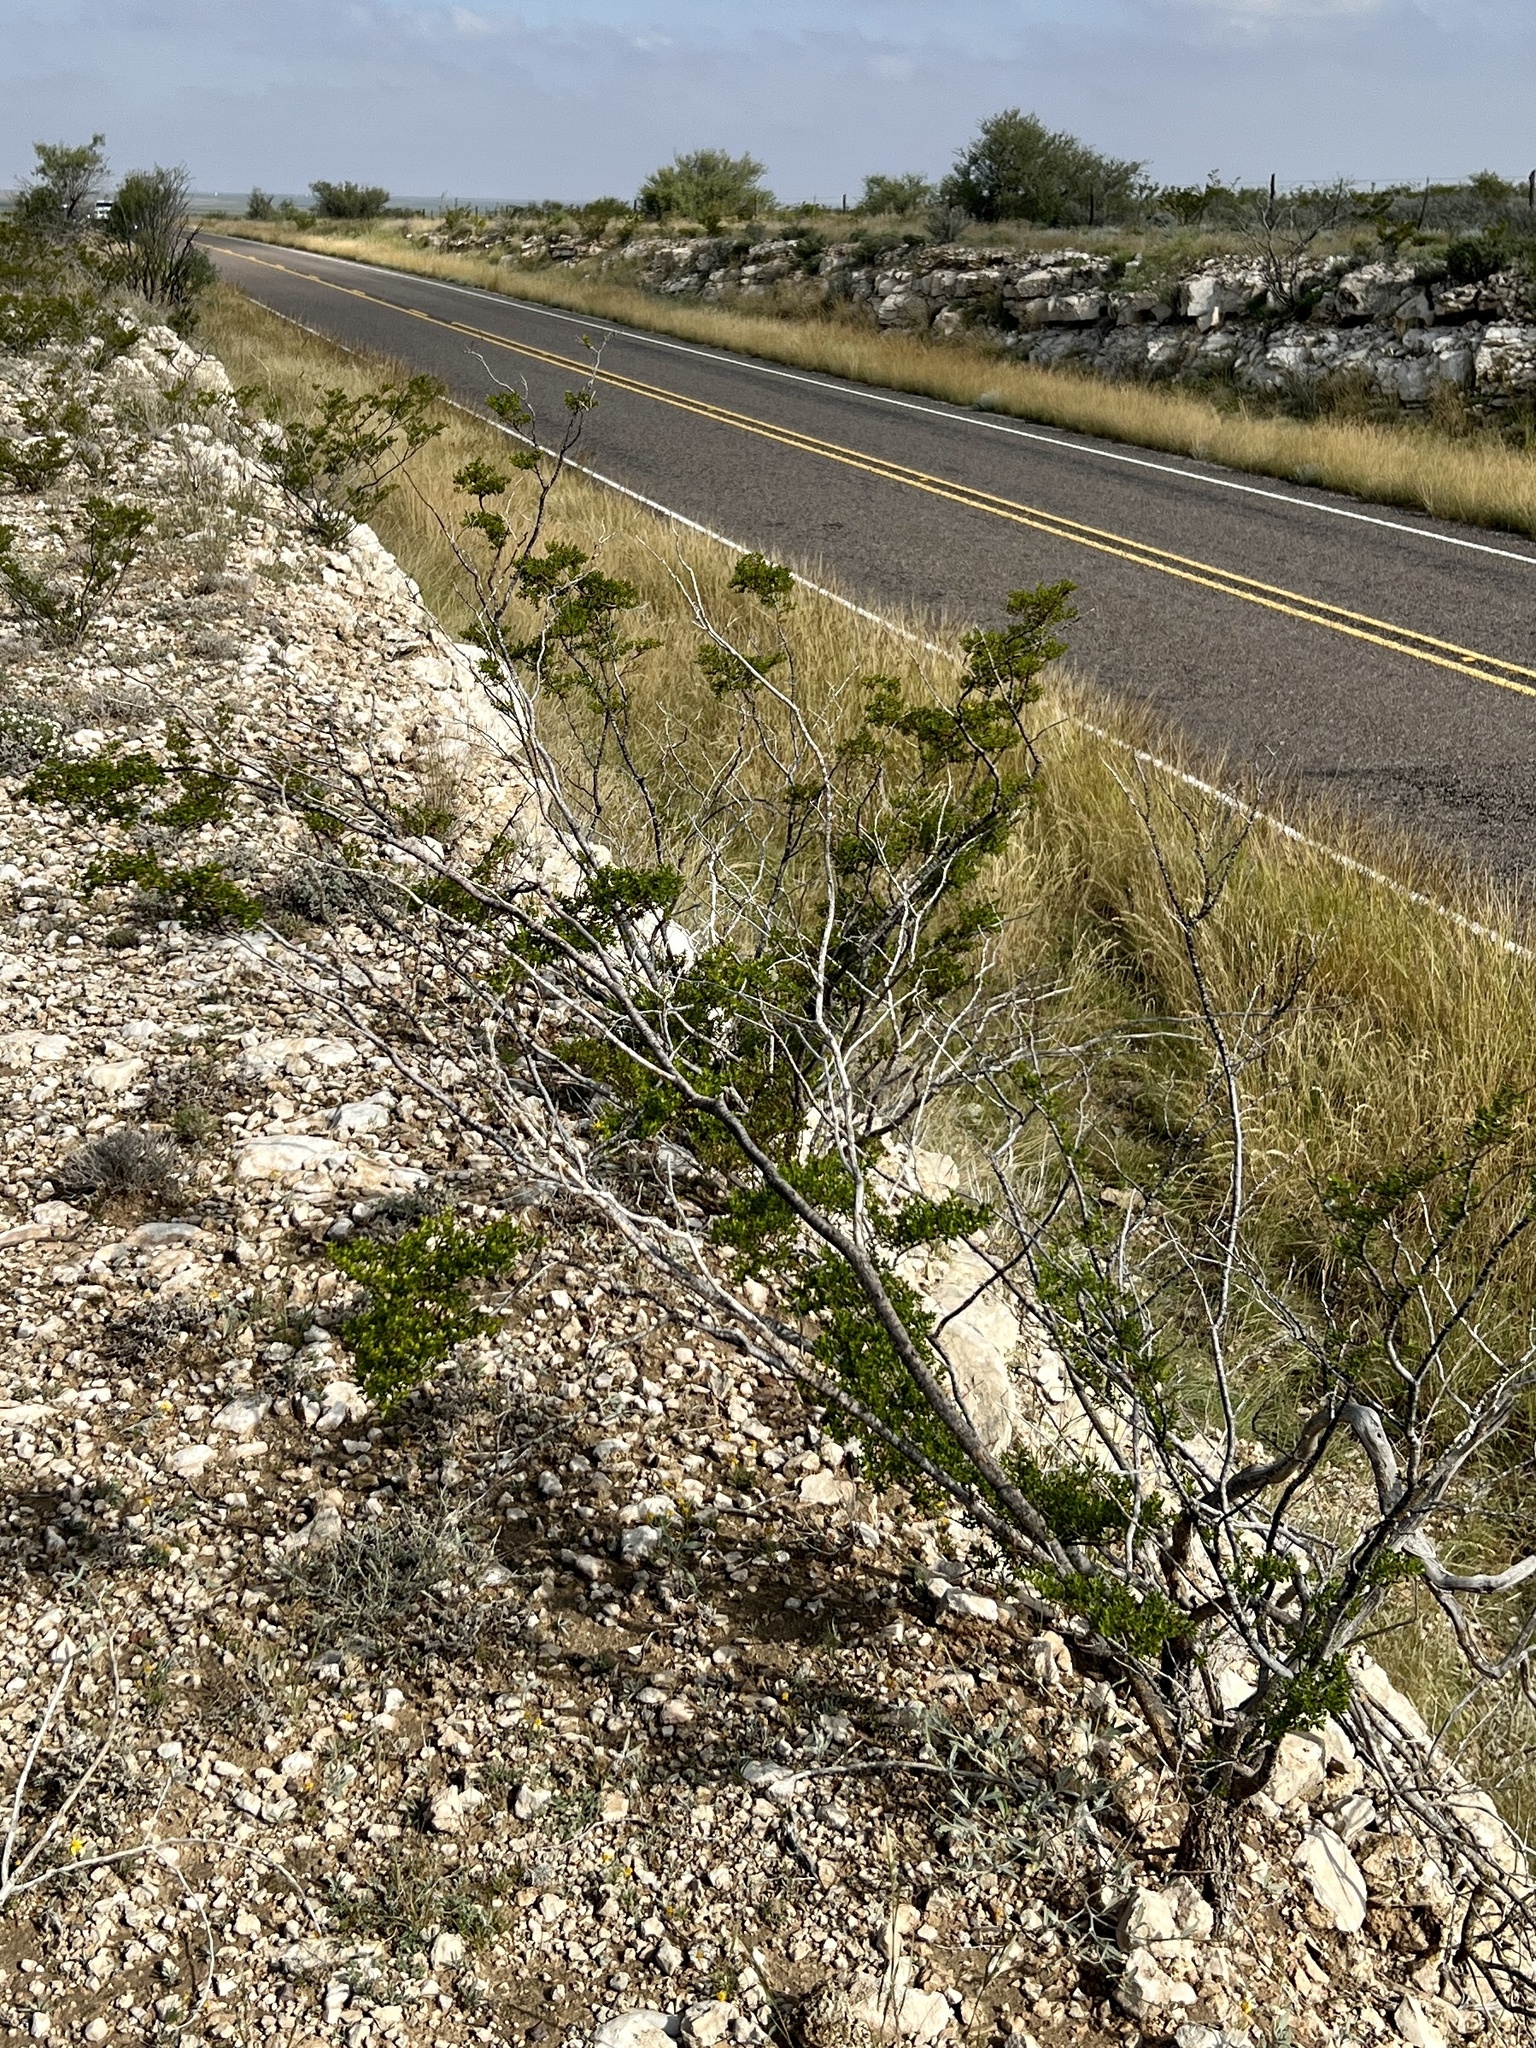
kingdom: Plantae
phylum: Tracheophyta
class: Magnoliopsida
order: Zygophyllales
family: Zygophyllaceae
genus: Larrea
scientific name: Larrea tridentata
